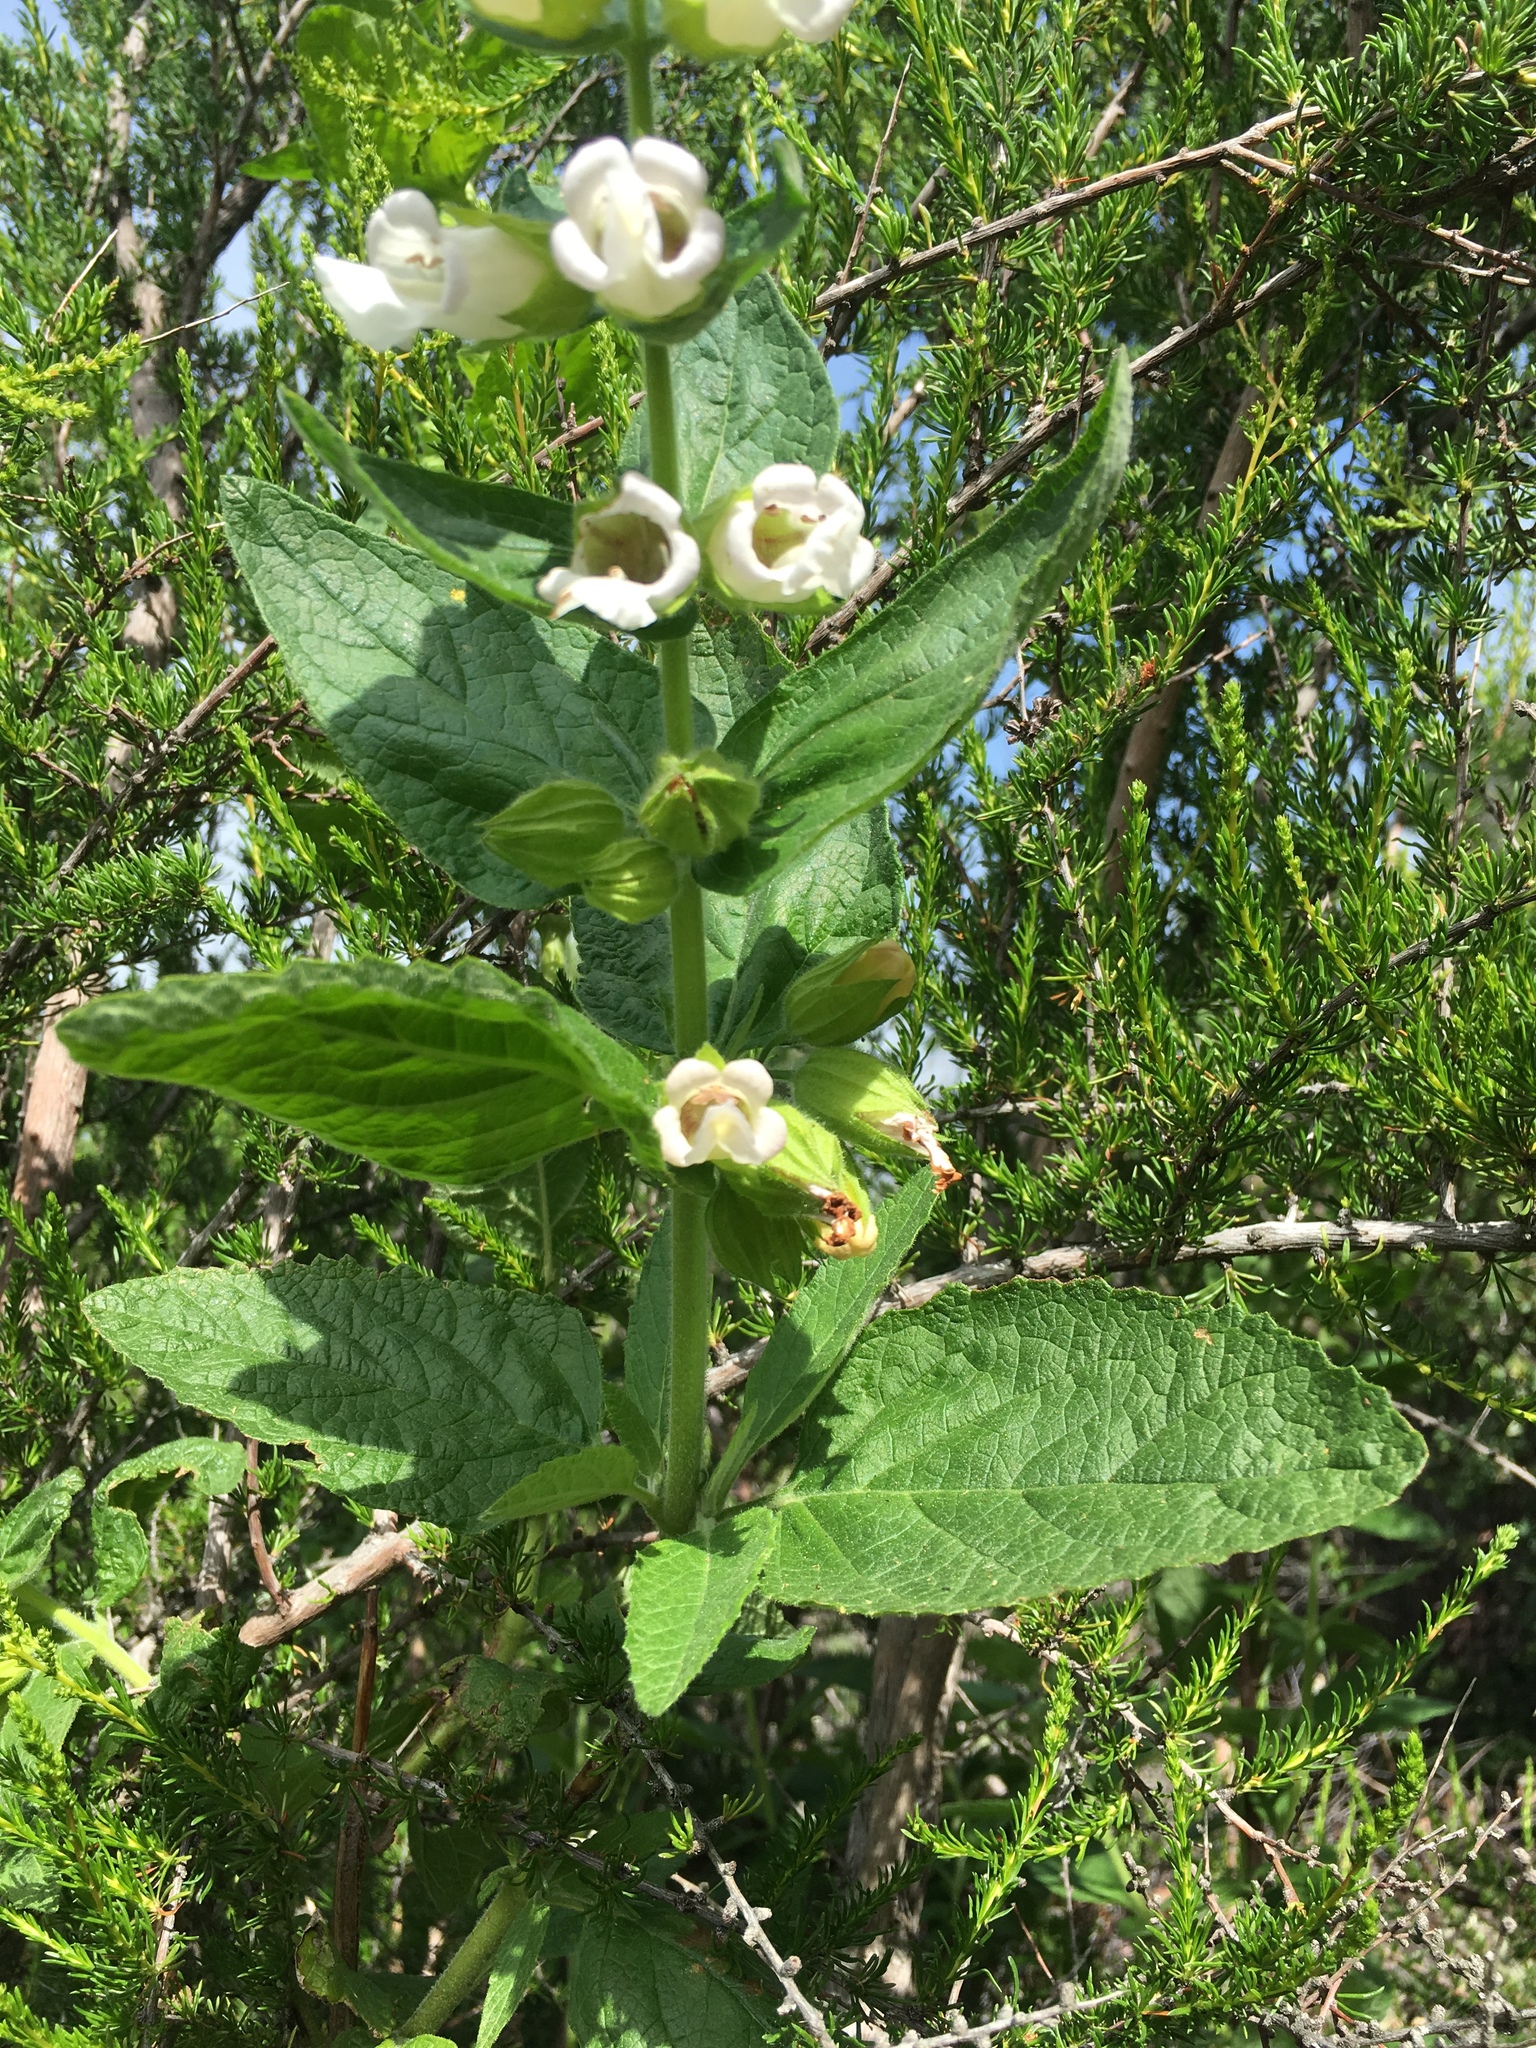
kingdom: Plantae
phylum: Tracheophyta
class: Magnoliopsida
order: Lamiales
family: Lamiaceae
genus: Lepechinia
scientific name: Lepechinia calycina
